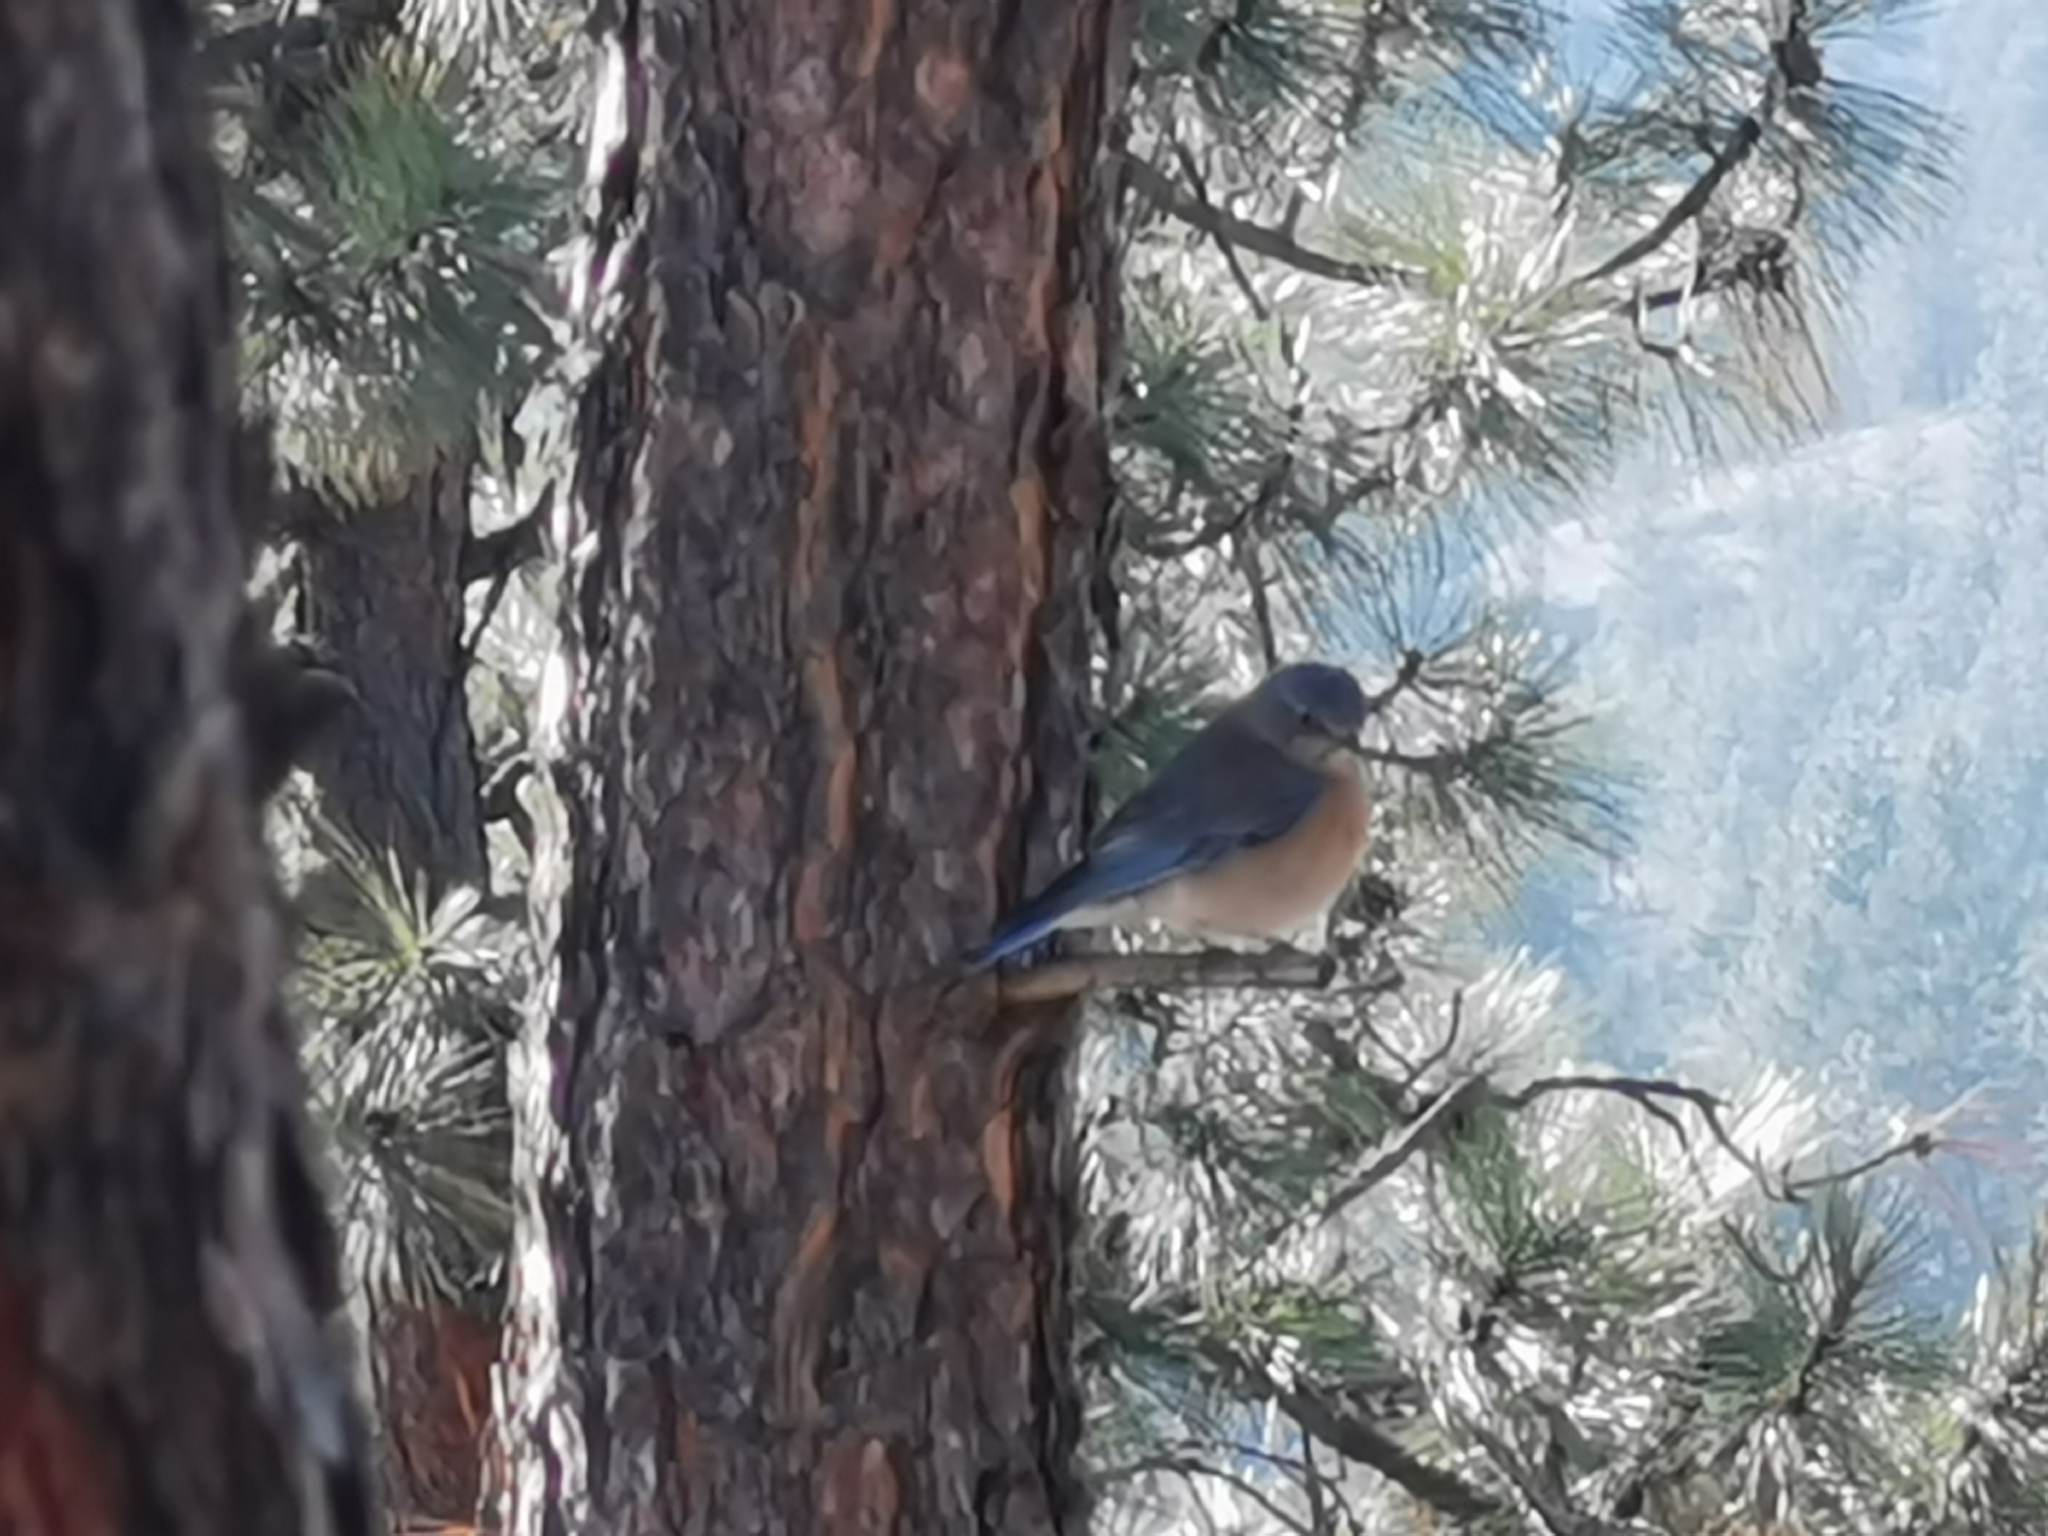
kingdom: Animalia
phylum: Chordata
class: Aves
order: Passeriformes
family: Turdidae
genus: Sialia
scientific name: Sialia mexicana
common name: Western bluebird
